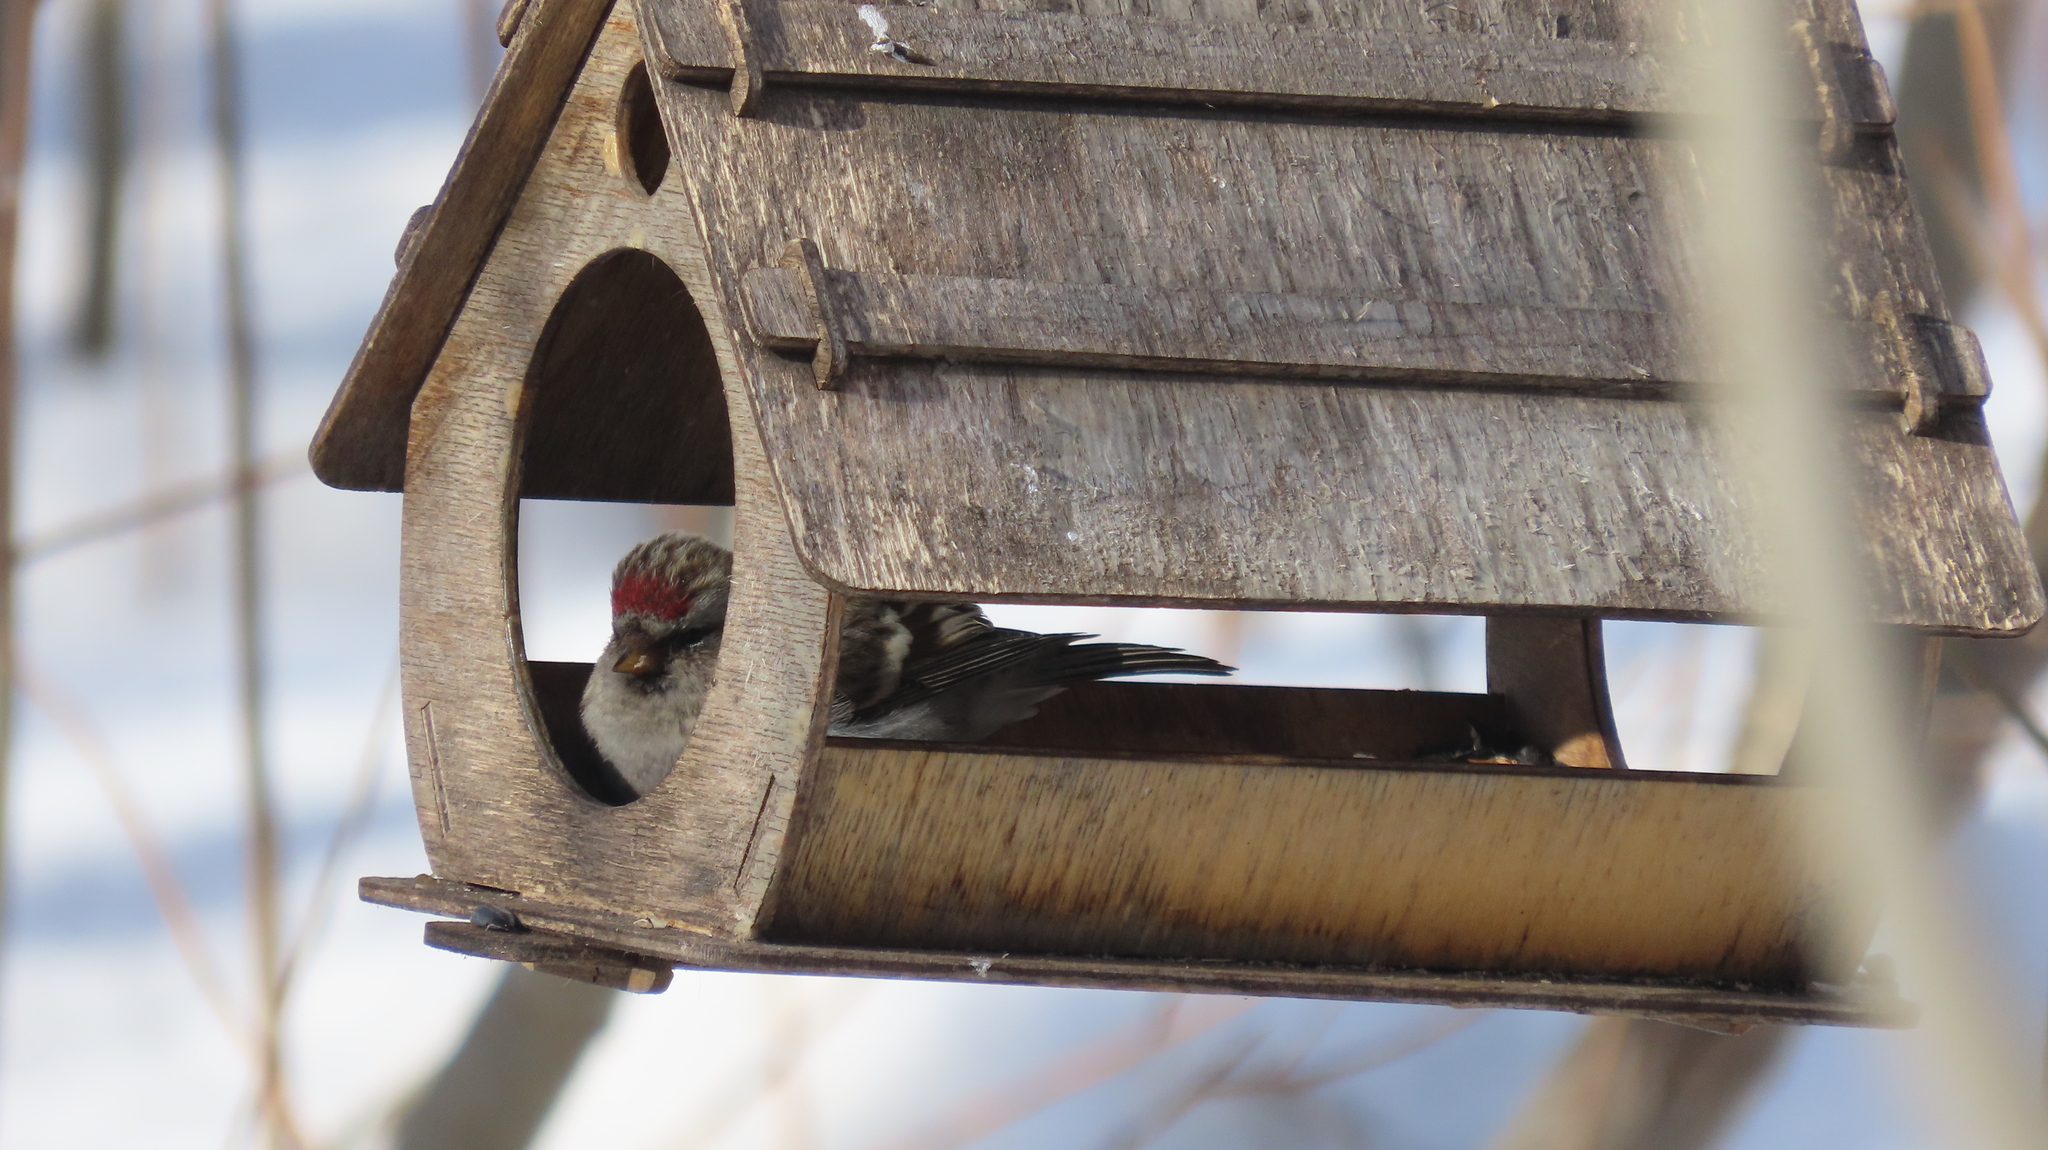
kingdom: Animalia
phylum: Chordata
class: Aves
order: Passeriformes
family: Fringillidae
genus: Acanthis
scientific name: Acanthis flammea
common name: Common redpoll
